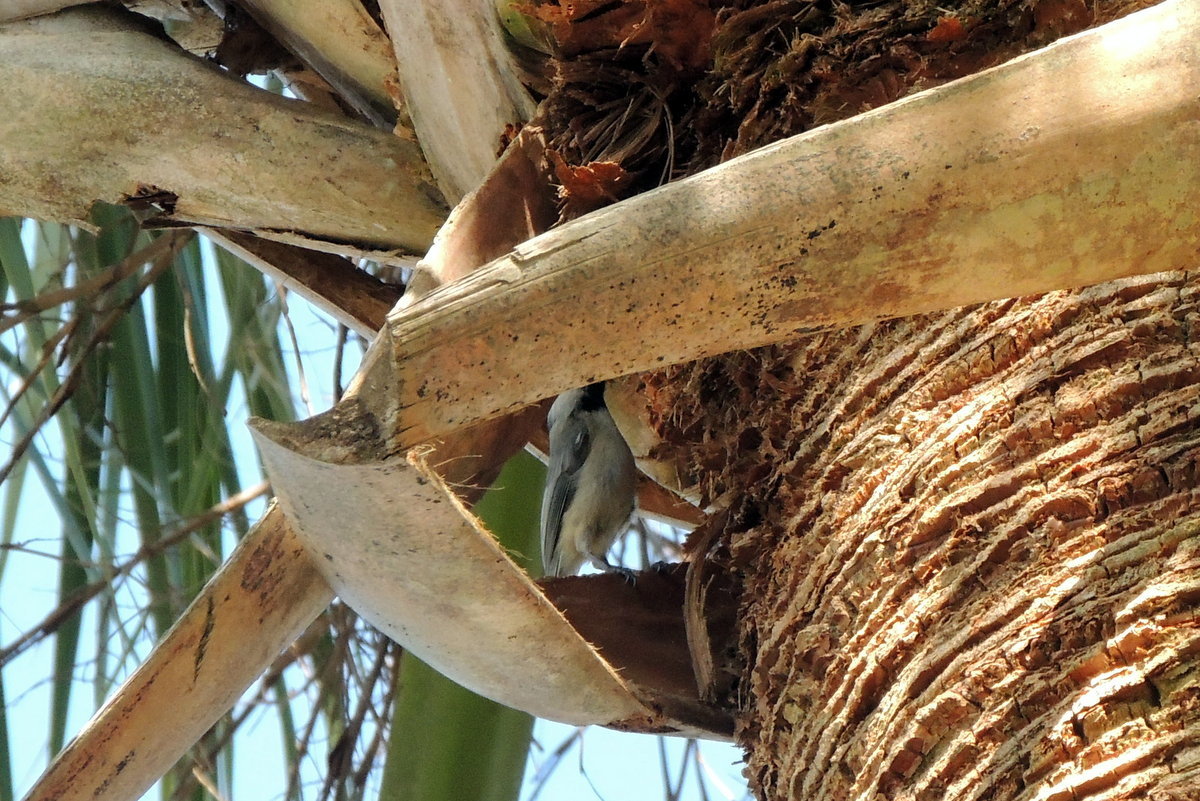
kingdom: Animalia
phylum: Chordata
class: Aves
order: Passeriformes
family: Paridae
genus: Poecile
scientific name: Poecile carolinensis
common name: Carolina chickadee
